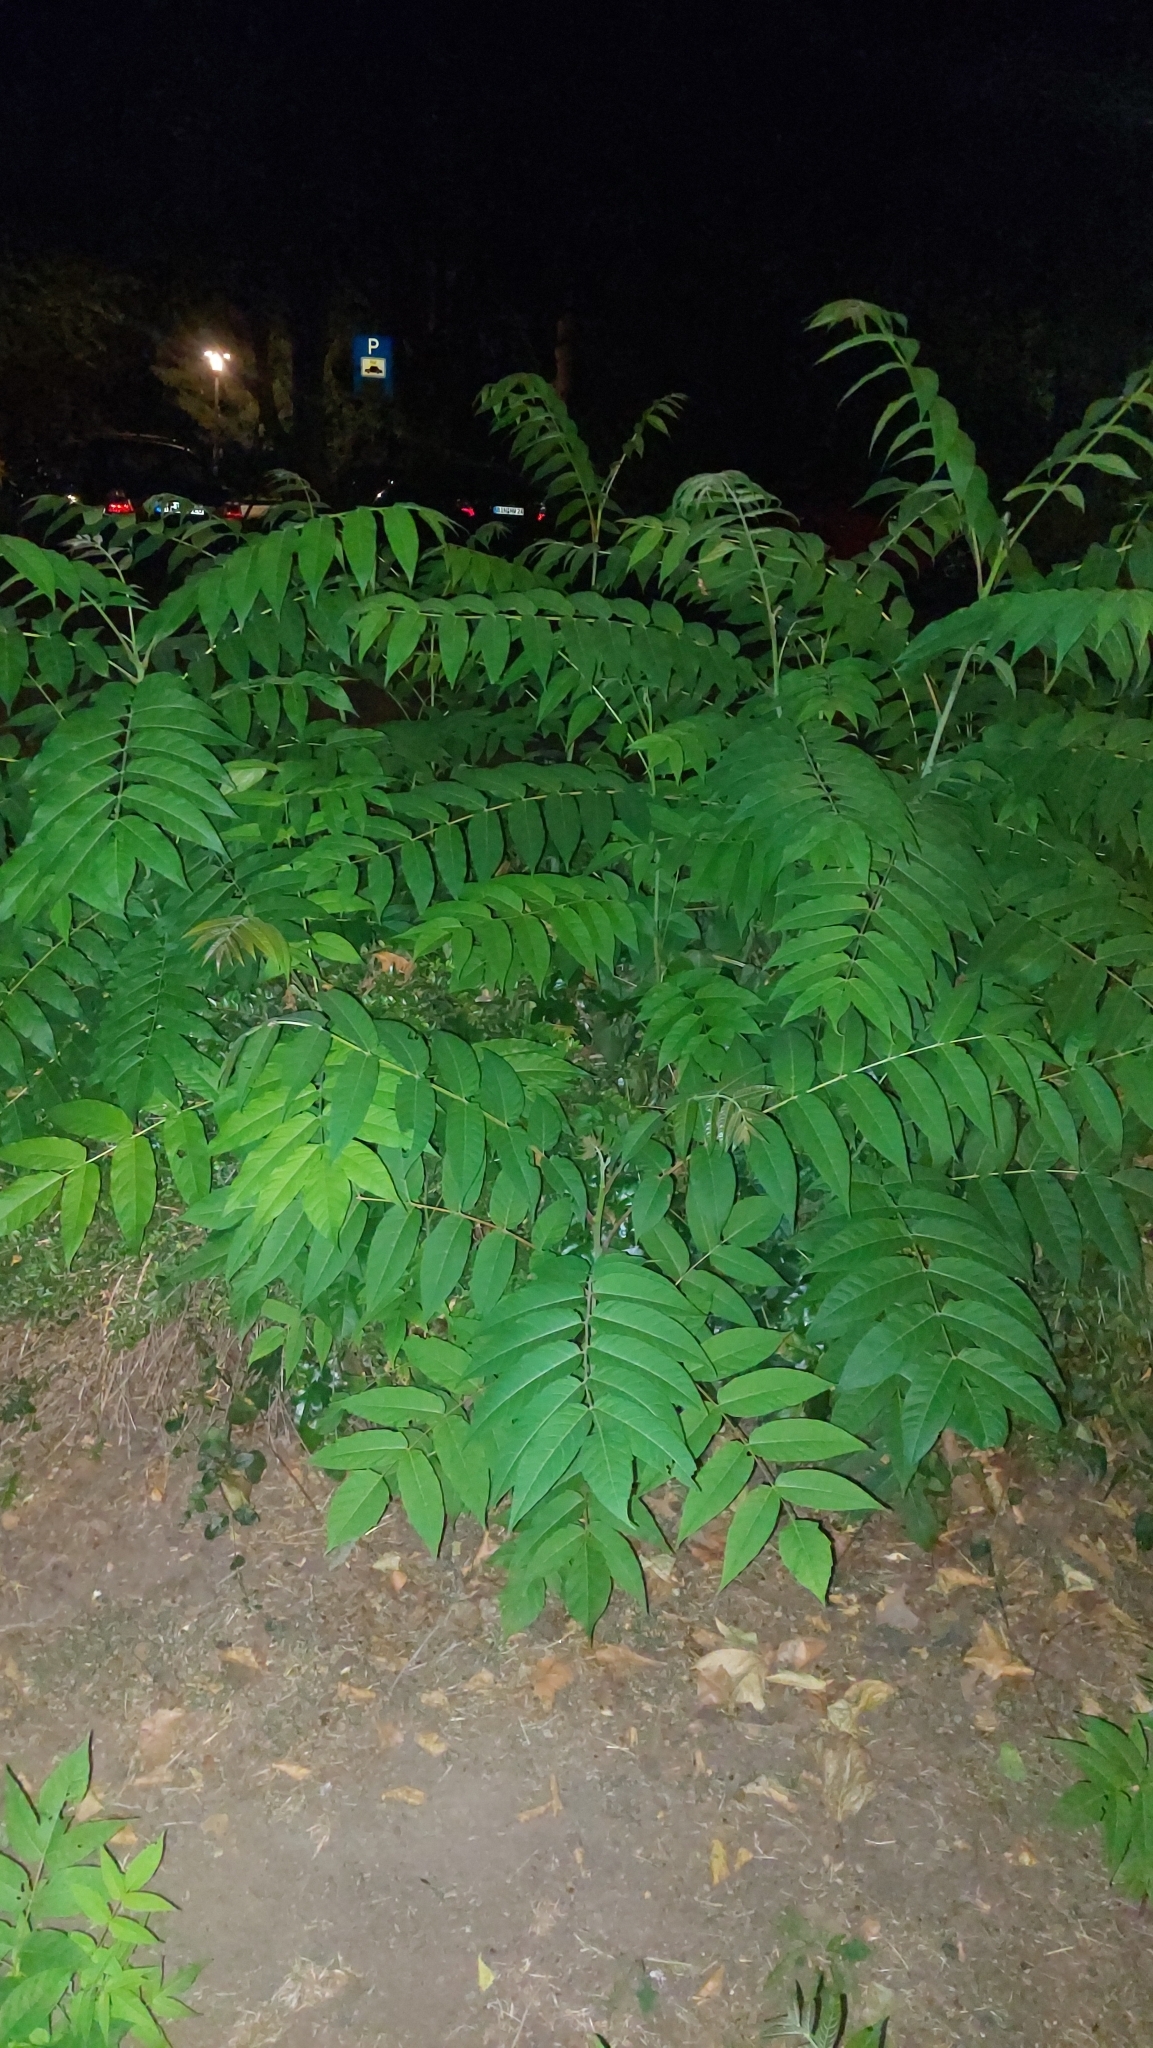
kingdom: Plantae
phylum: Tracheophyta
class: Magnoliopsida
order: Sapindales
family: Simaroubaceae
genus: Ailanthus
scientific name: Ailanthus altissima
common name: Tree-of-heaven
